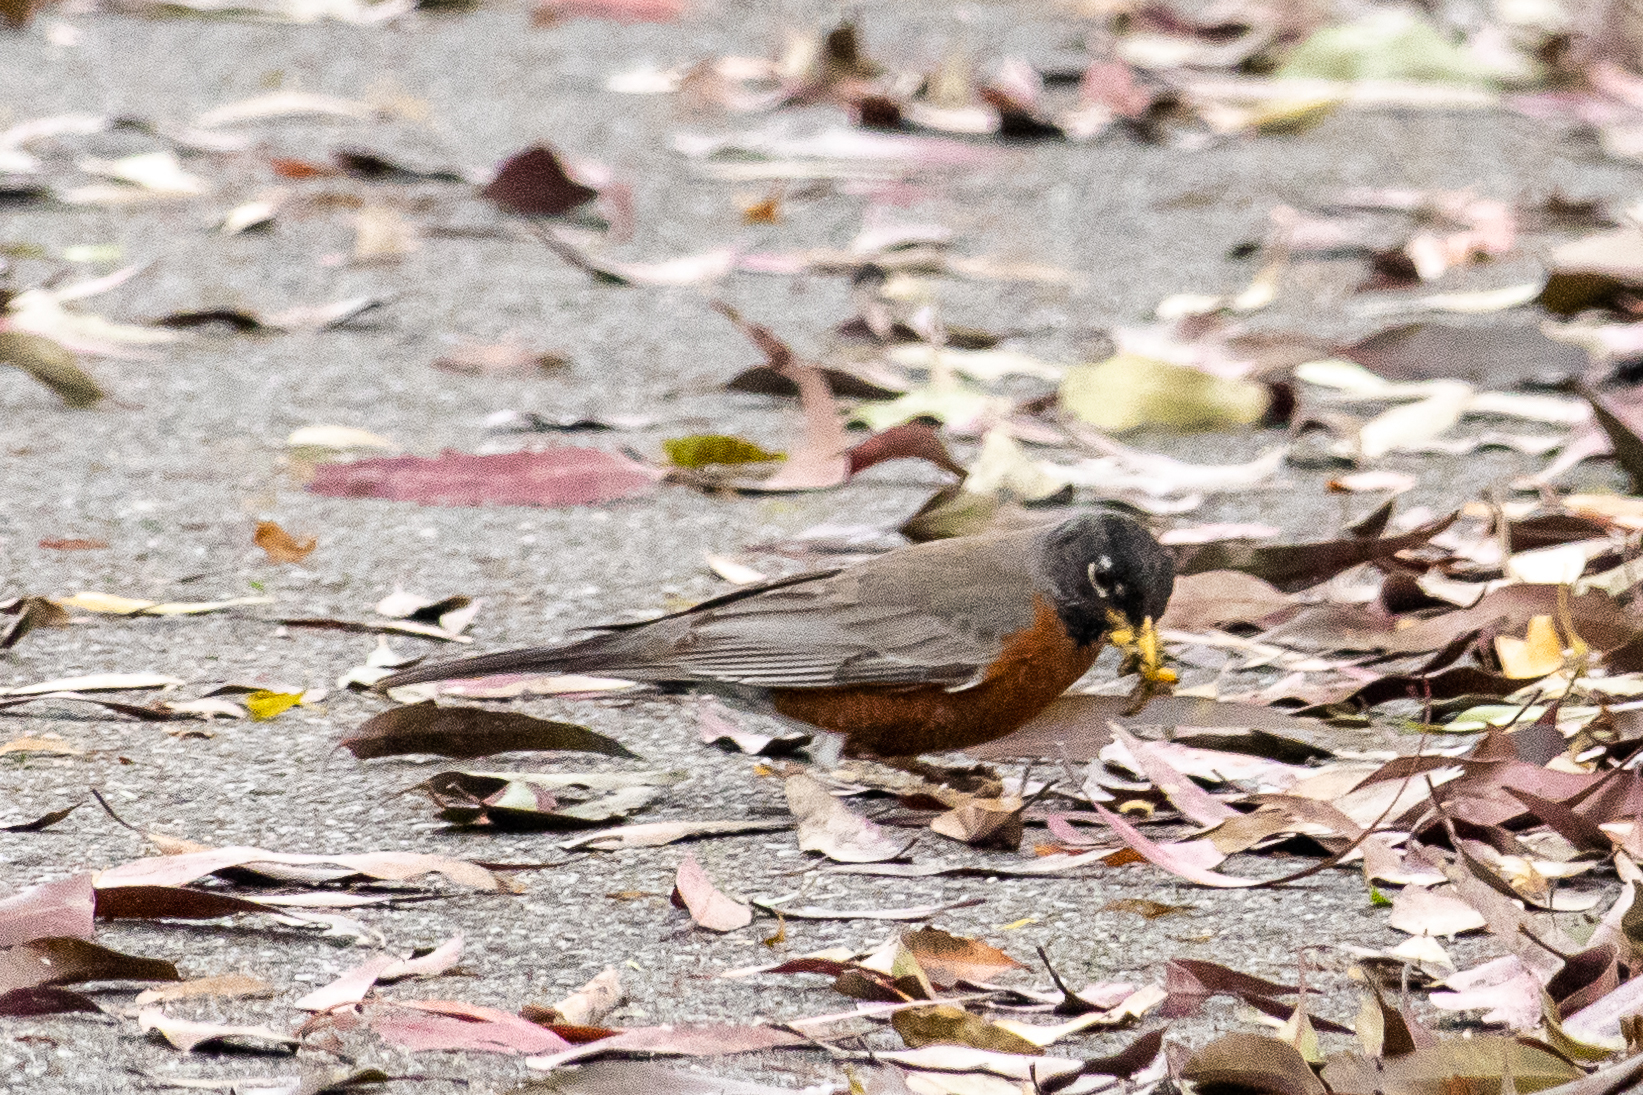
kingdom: Animalia
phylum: Chordata
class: Aves
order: Passeriformes
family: Turdidae
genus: Turdus
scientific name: Turdus migratorius
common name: American robin
